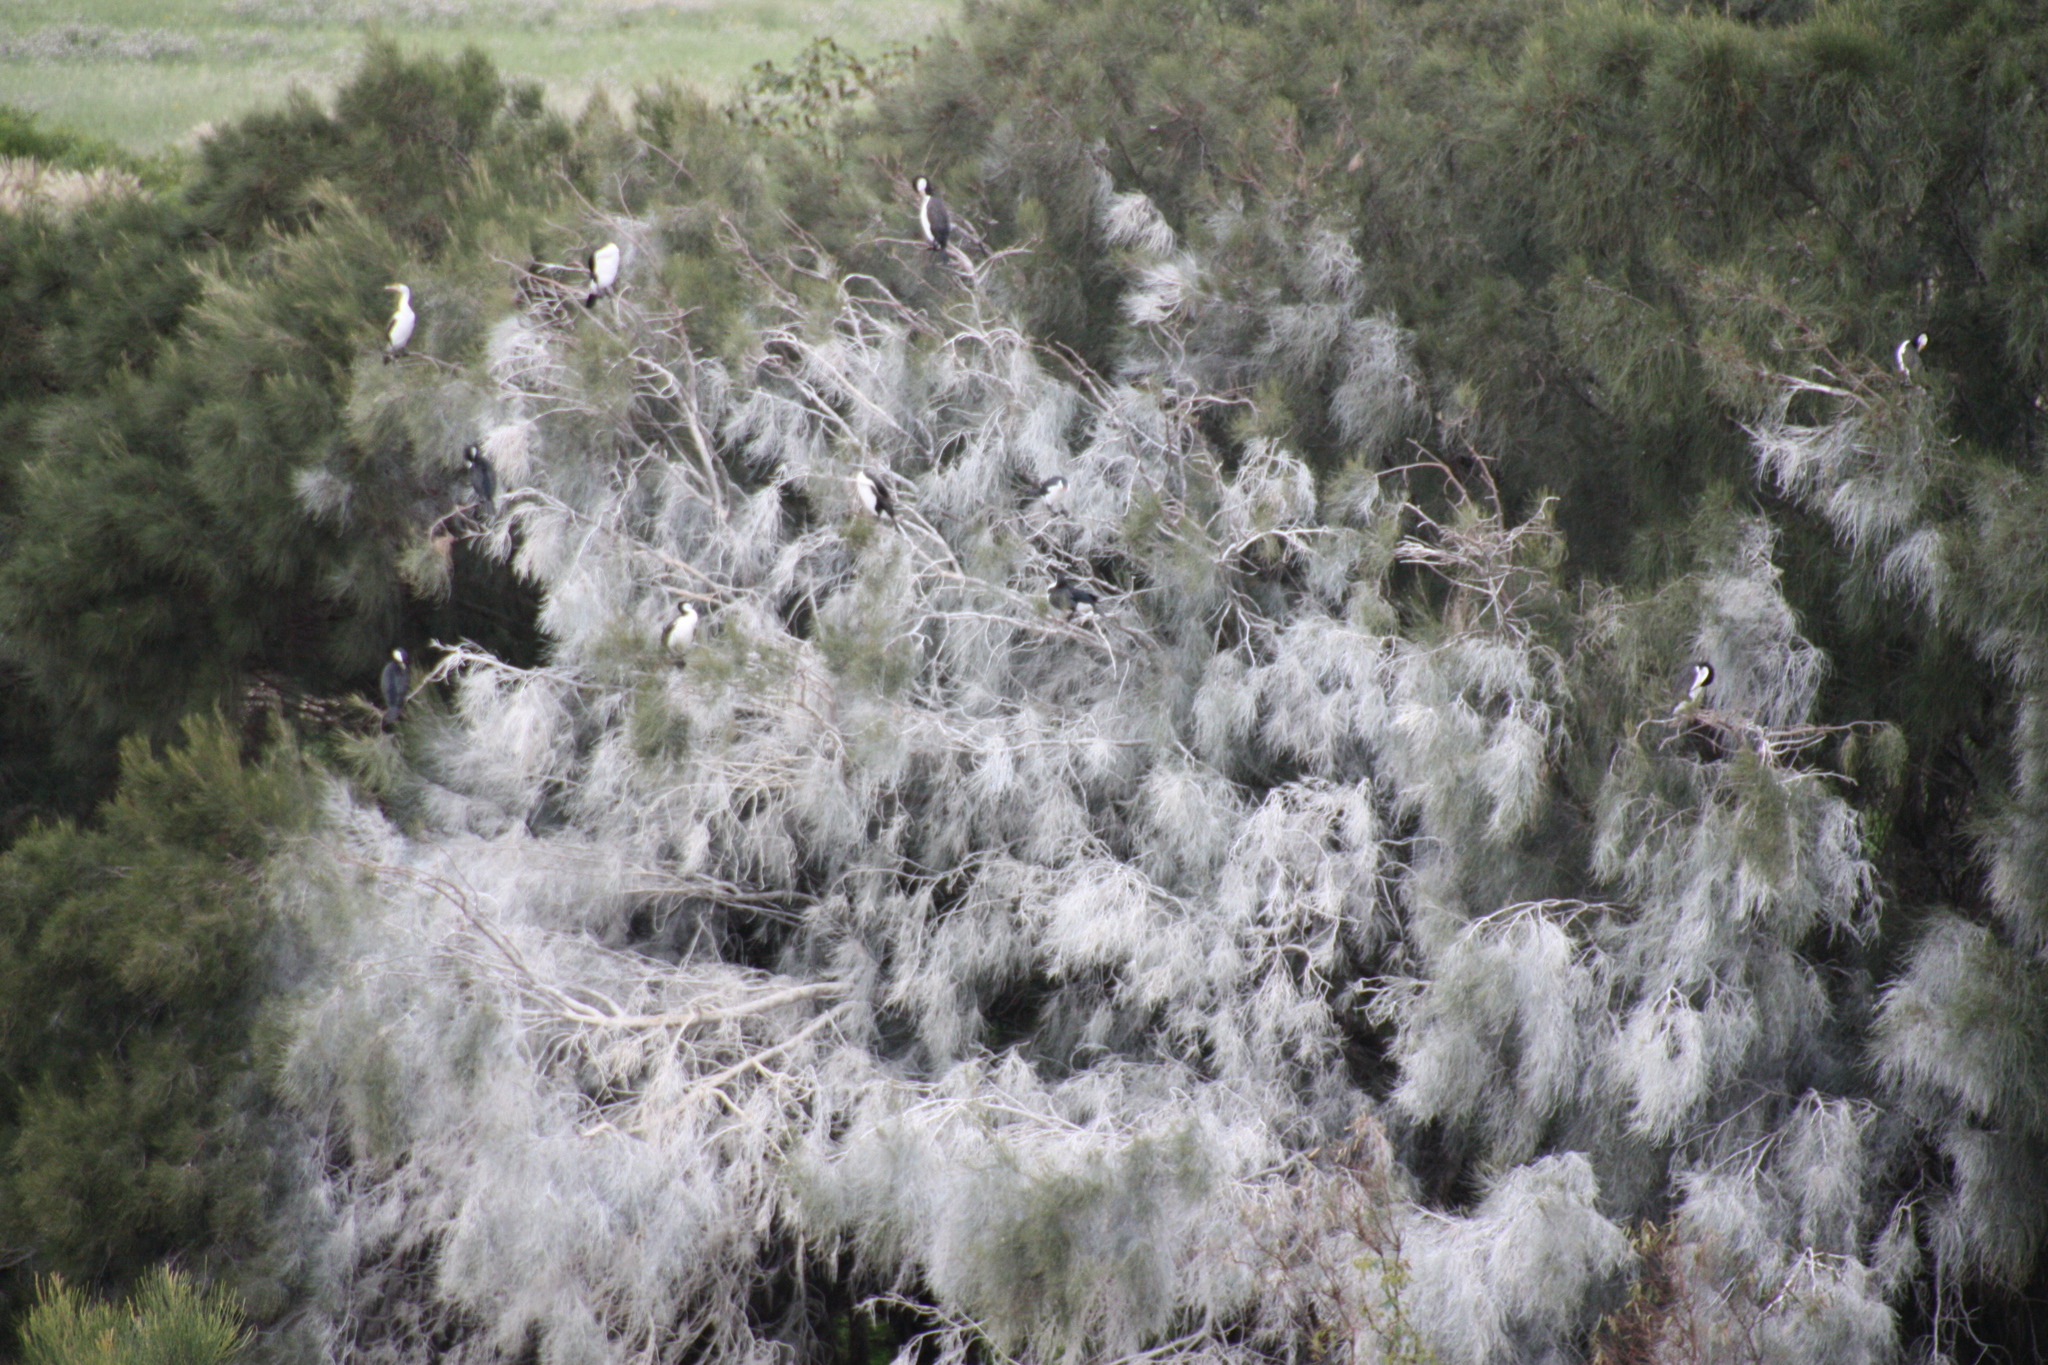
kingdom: Animalia
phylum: Chordata
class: Aves
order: Suliformes
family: Phalacrocoracidae
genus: Microcarbo
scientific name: Microcarbo melanoleucos
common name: Little pied cormorant
